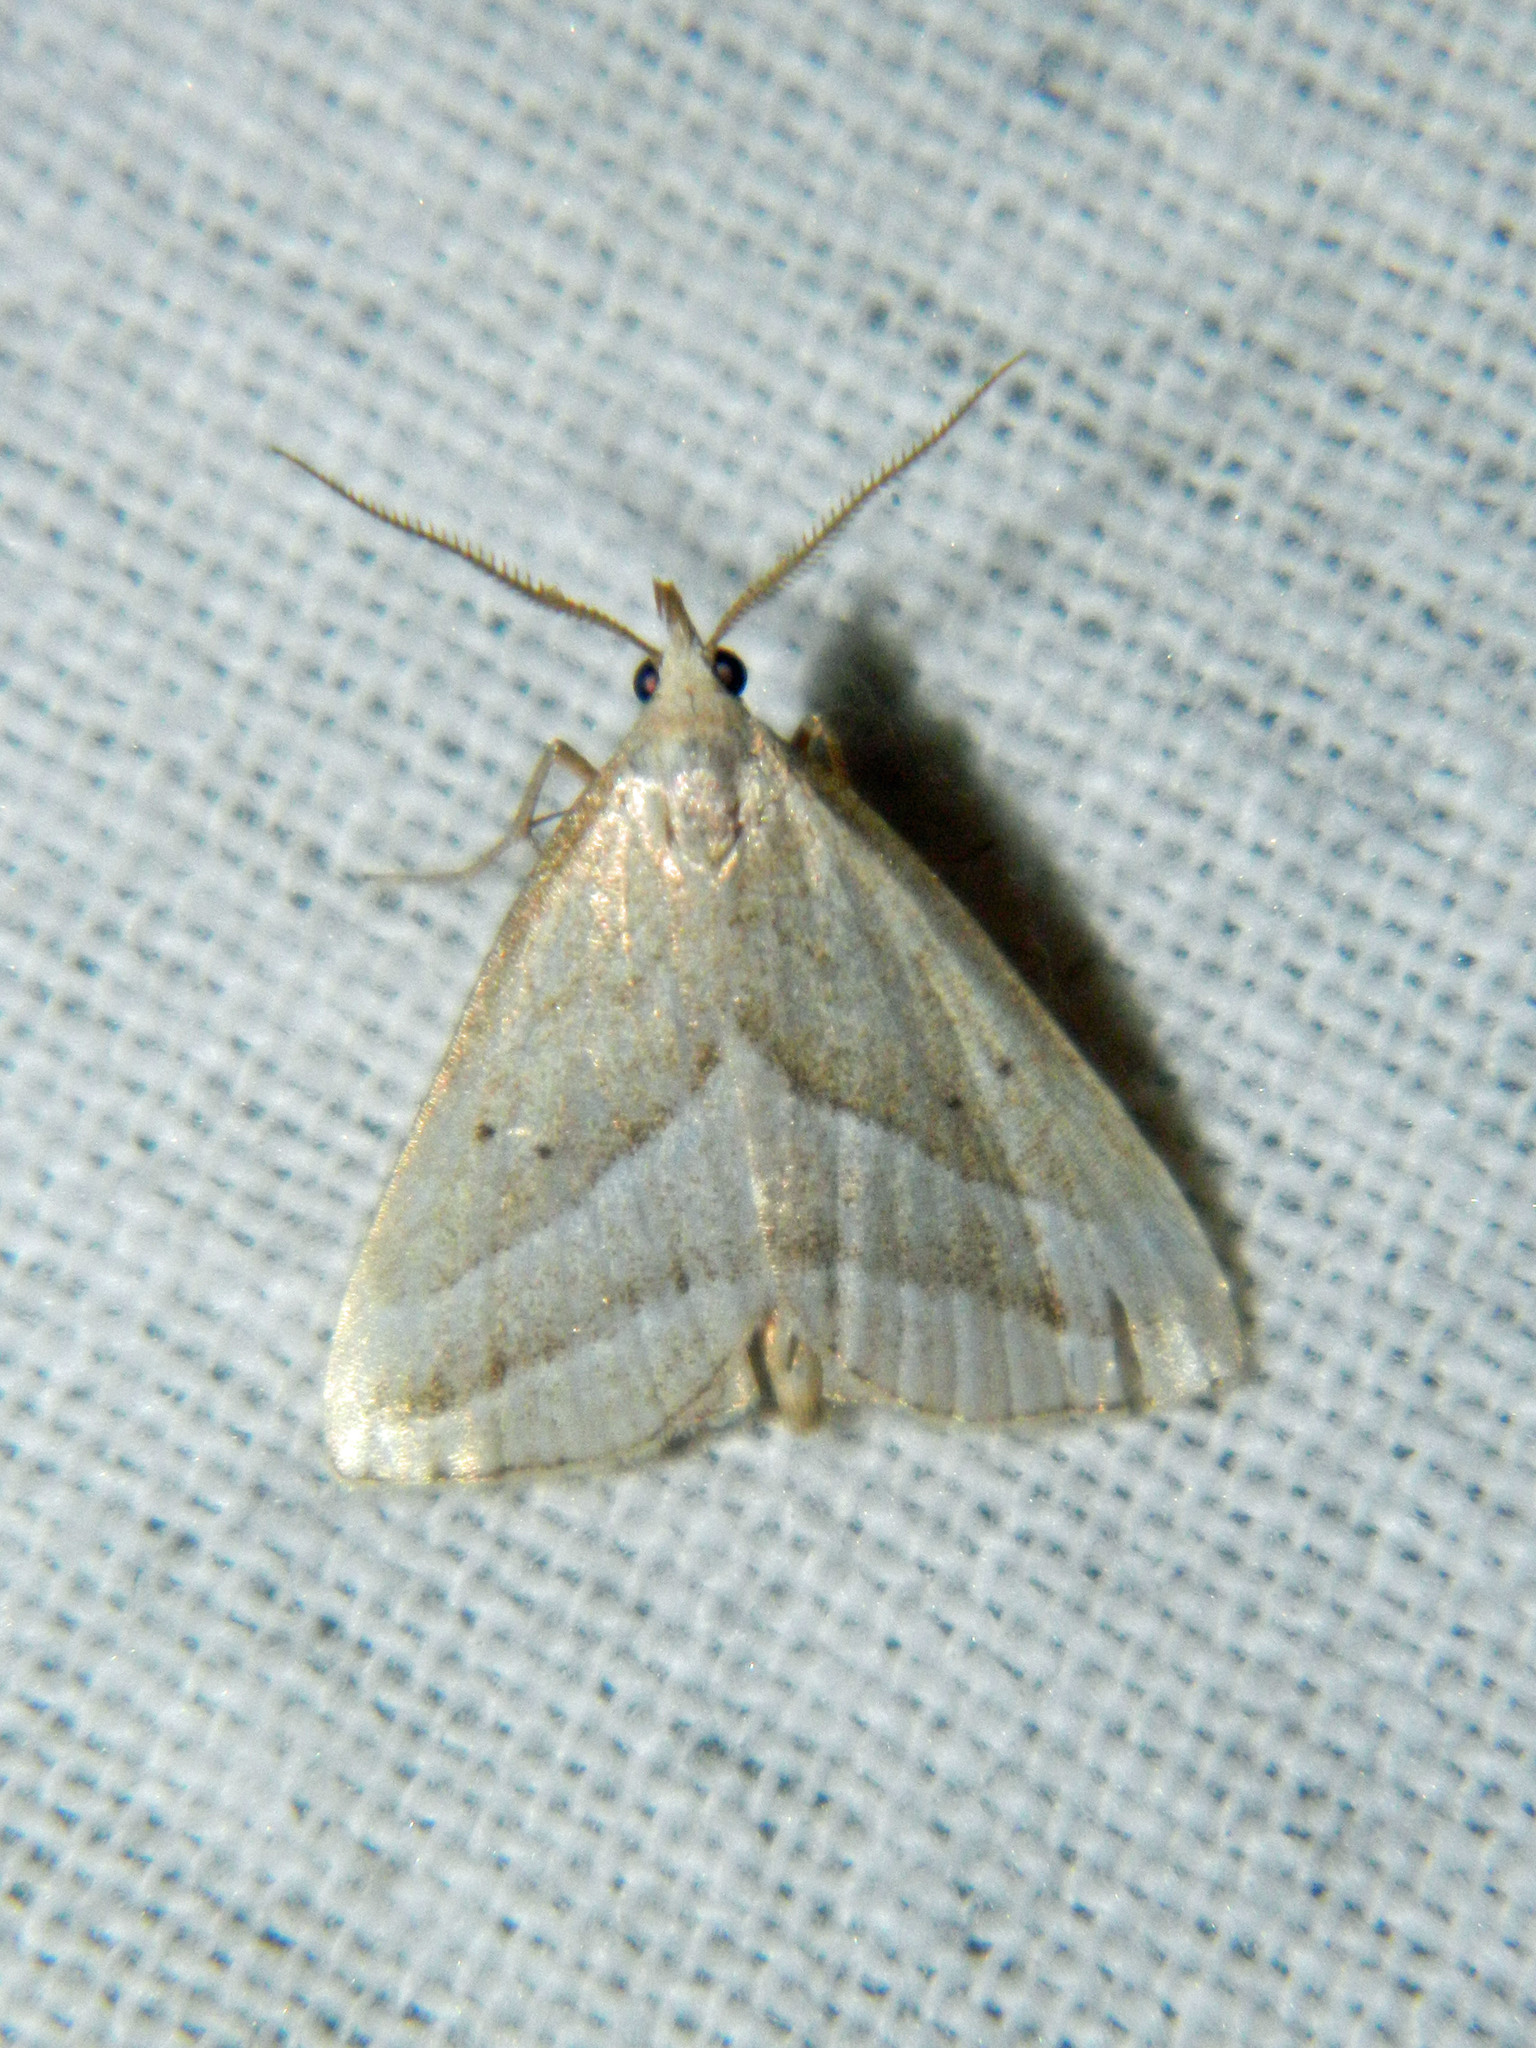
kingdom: Animalia
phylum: Arthropoda
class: Insecta
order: Lepidoptera
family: Erebidae
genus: Macrochilo
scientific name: Macrochilo absorptalis
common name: Slant-lined owlet
